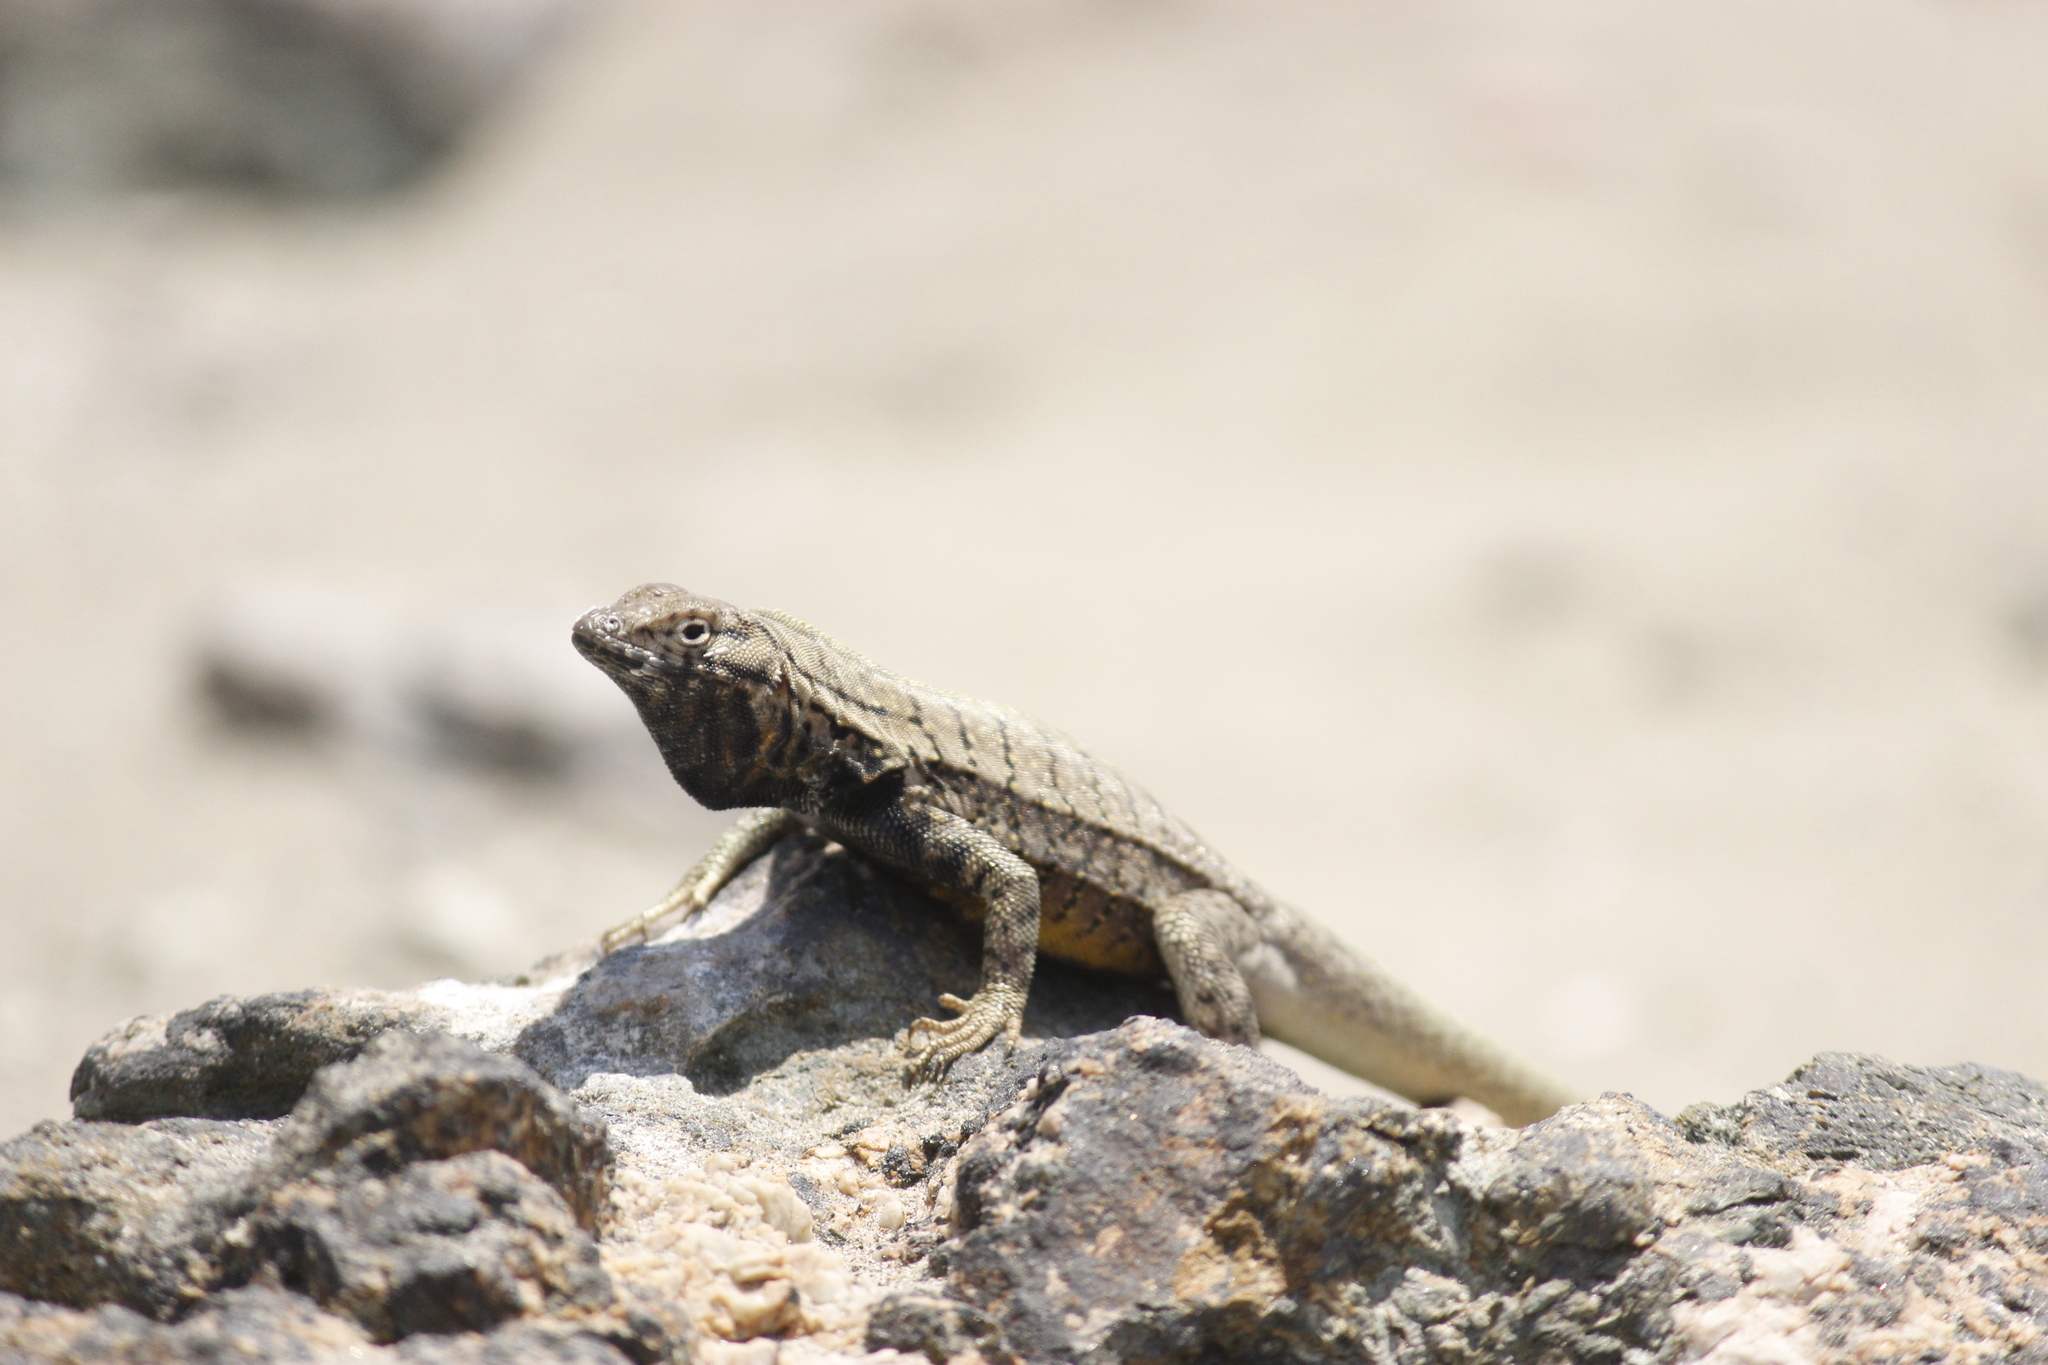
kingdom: Animalia
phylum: Chordata
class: Squamata
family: Tropiduridae
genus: Microlophus
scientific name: Microlophus peruvianus
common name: Peru pacific iguana
